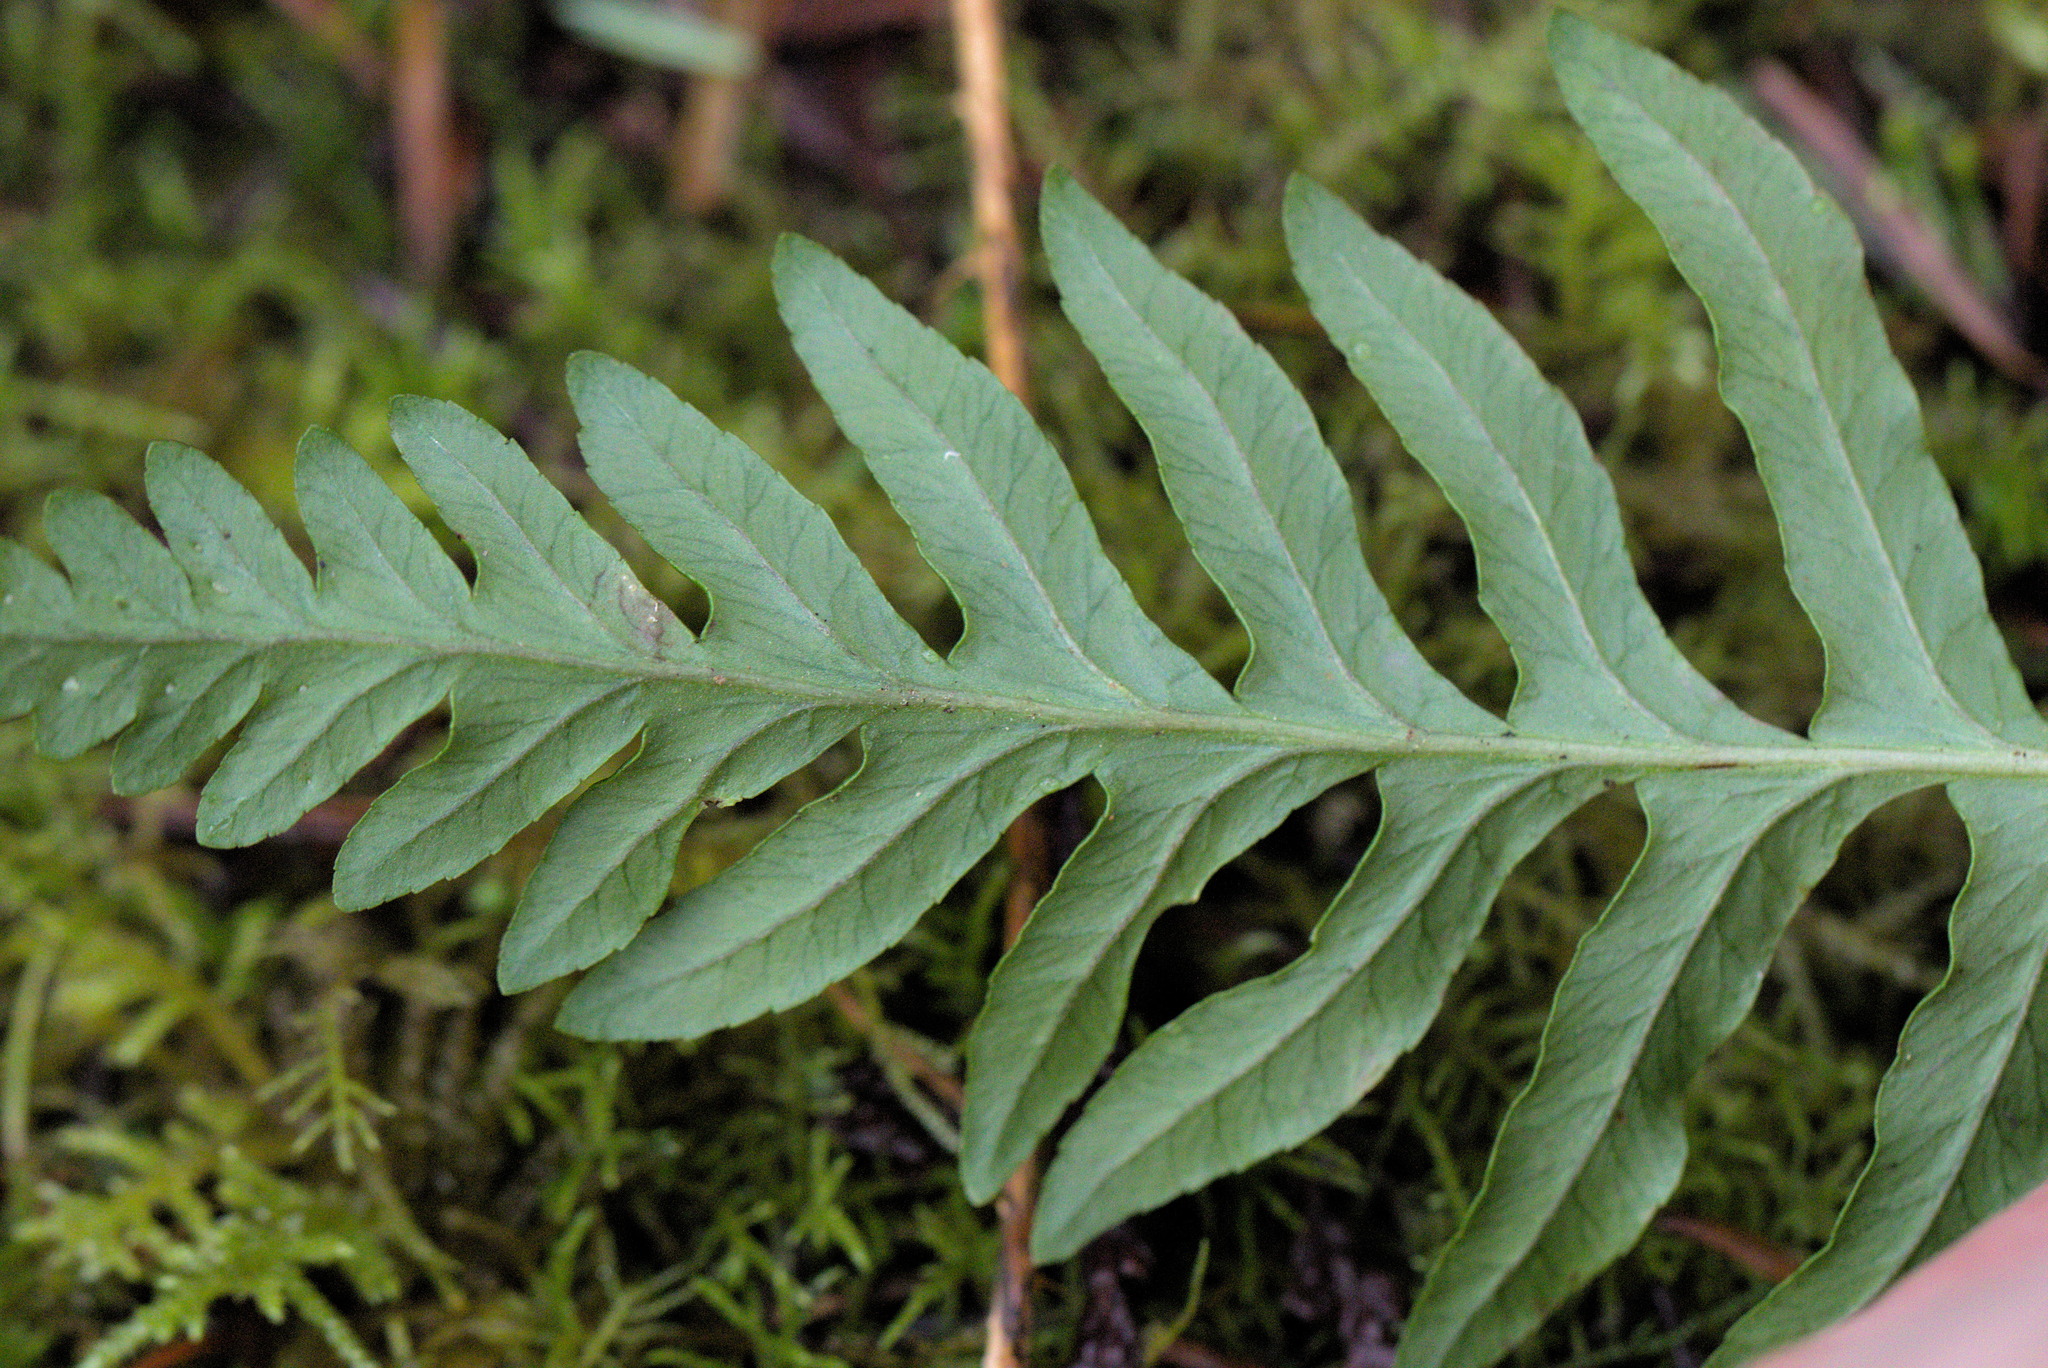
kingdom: Plantae
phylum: Tracheophyta
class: Polypodiopsida
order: Polypodiales
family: Polypodiaceae
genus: Polypodium
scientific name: Polypodium glycyrrhiza
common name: Licorice fern
